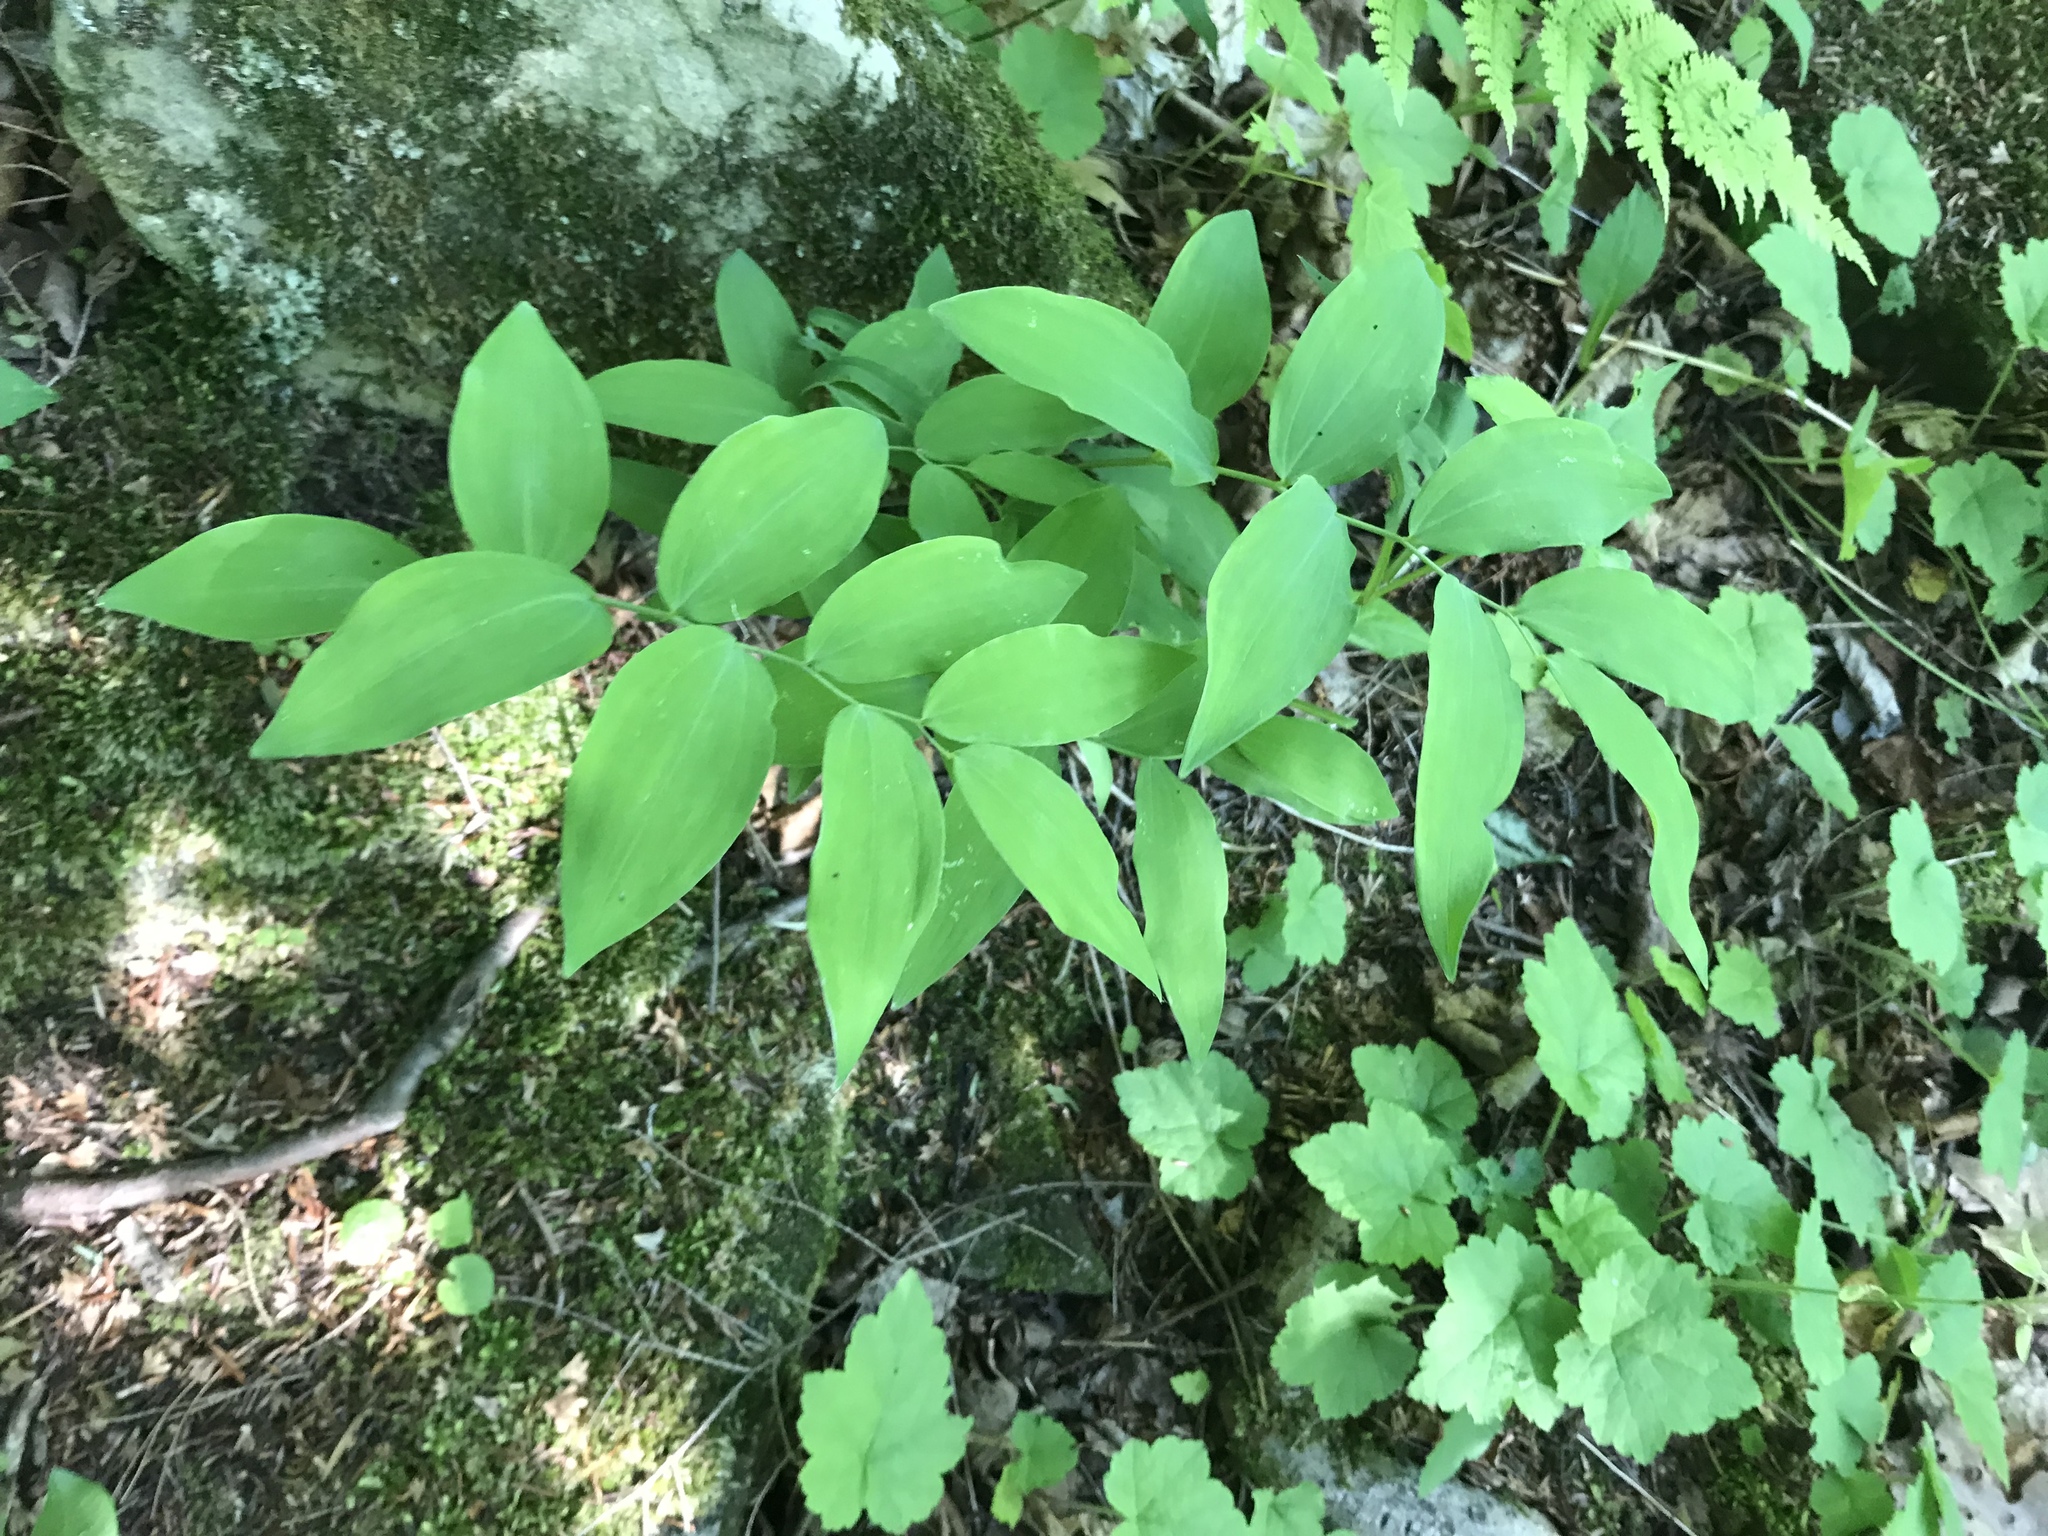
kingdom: Plantae
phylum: Tracheophyta
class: Liliopsida
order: Asparagales
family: Asparagaceae
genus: Polygonatum
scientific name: Polygonatum pubescens
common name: Downy solomon's seal
